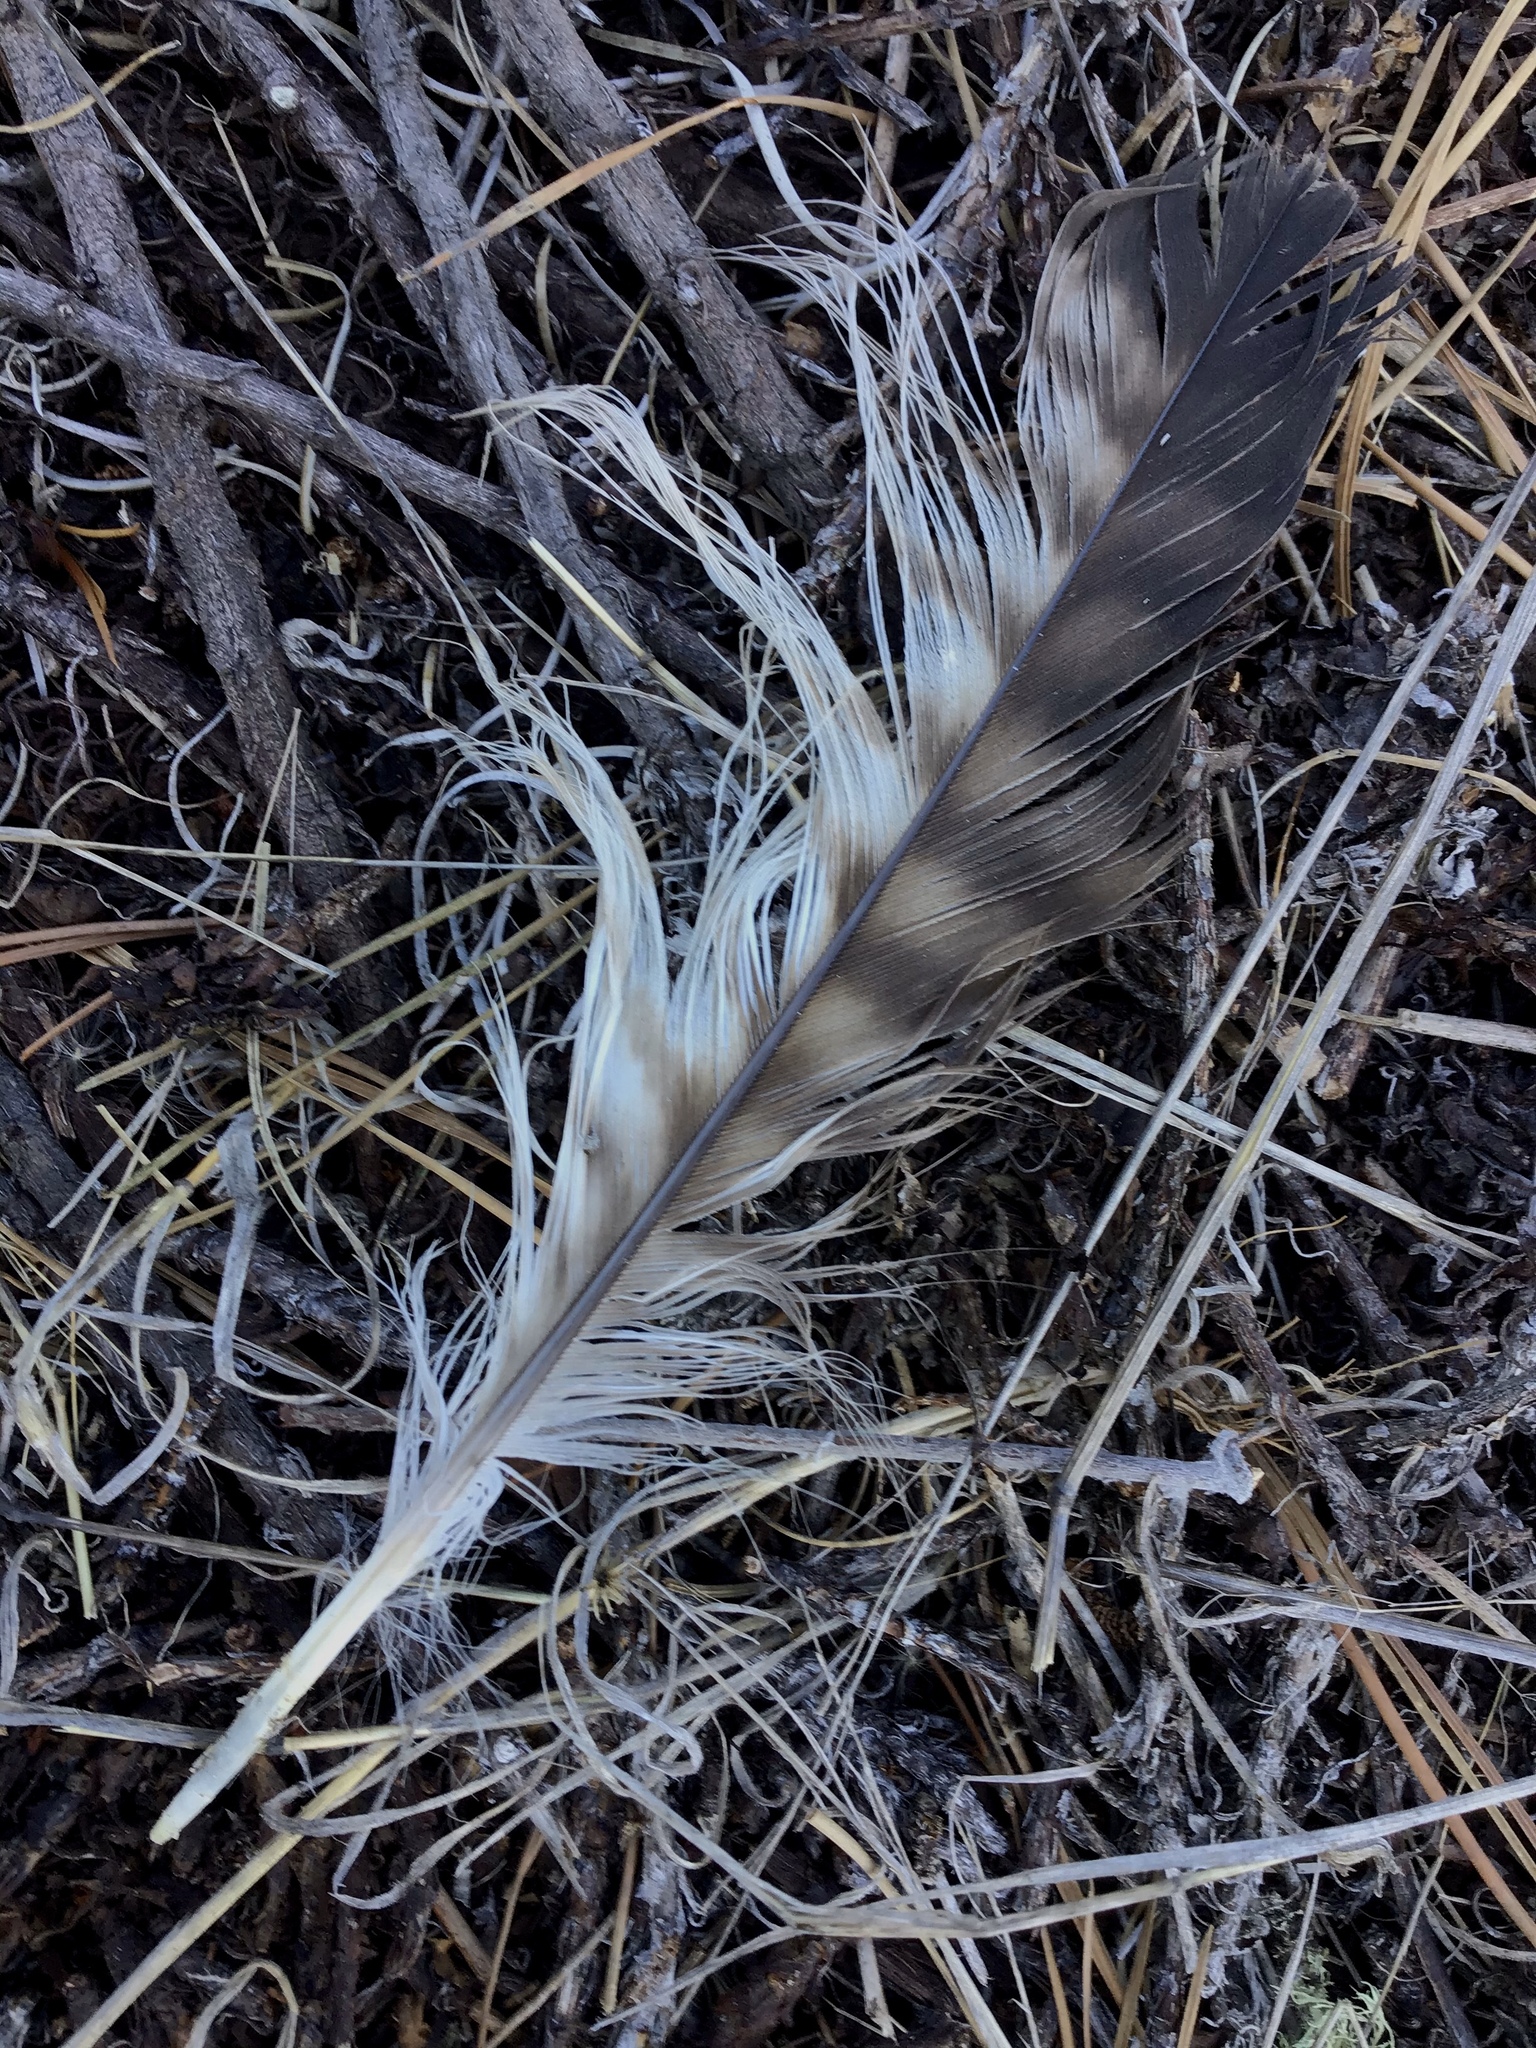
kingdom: Animalia
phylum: Chordata
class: Aves
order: Accipitriformes
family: Accipitridae
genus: Buteo
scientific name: Buteo jamaicensis
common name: Red-tailed hawk
